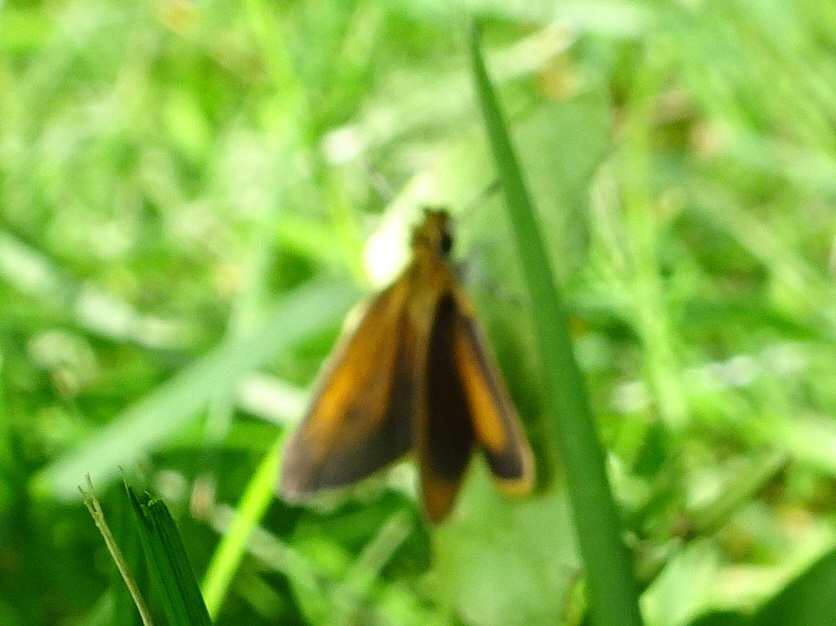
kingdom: Animalia
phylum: Arthropoda
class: Insecta
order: Lepidoptera
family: Hesperiidae
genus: Ancyloxypha
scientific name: Ancyloxypha numitor
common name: Least skipper
